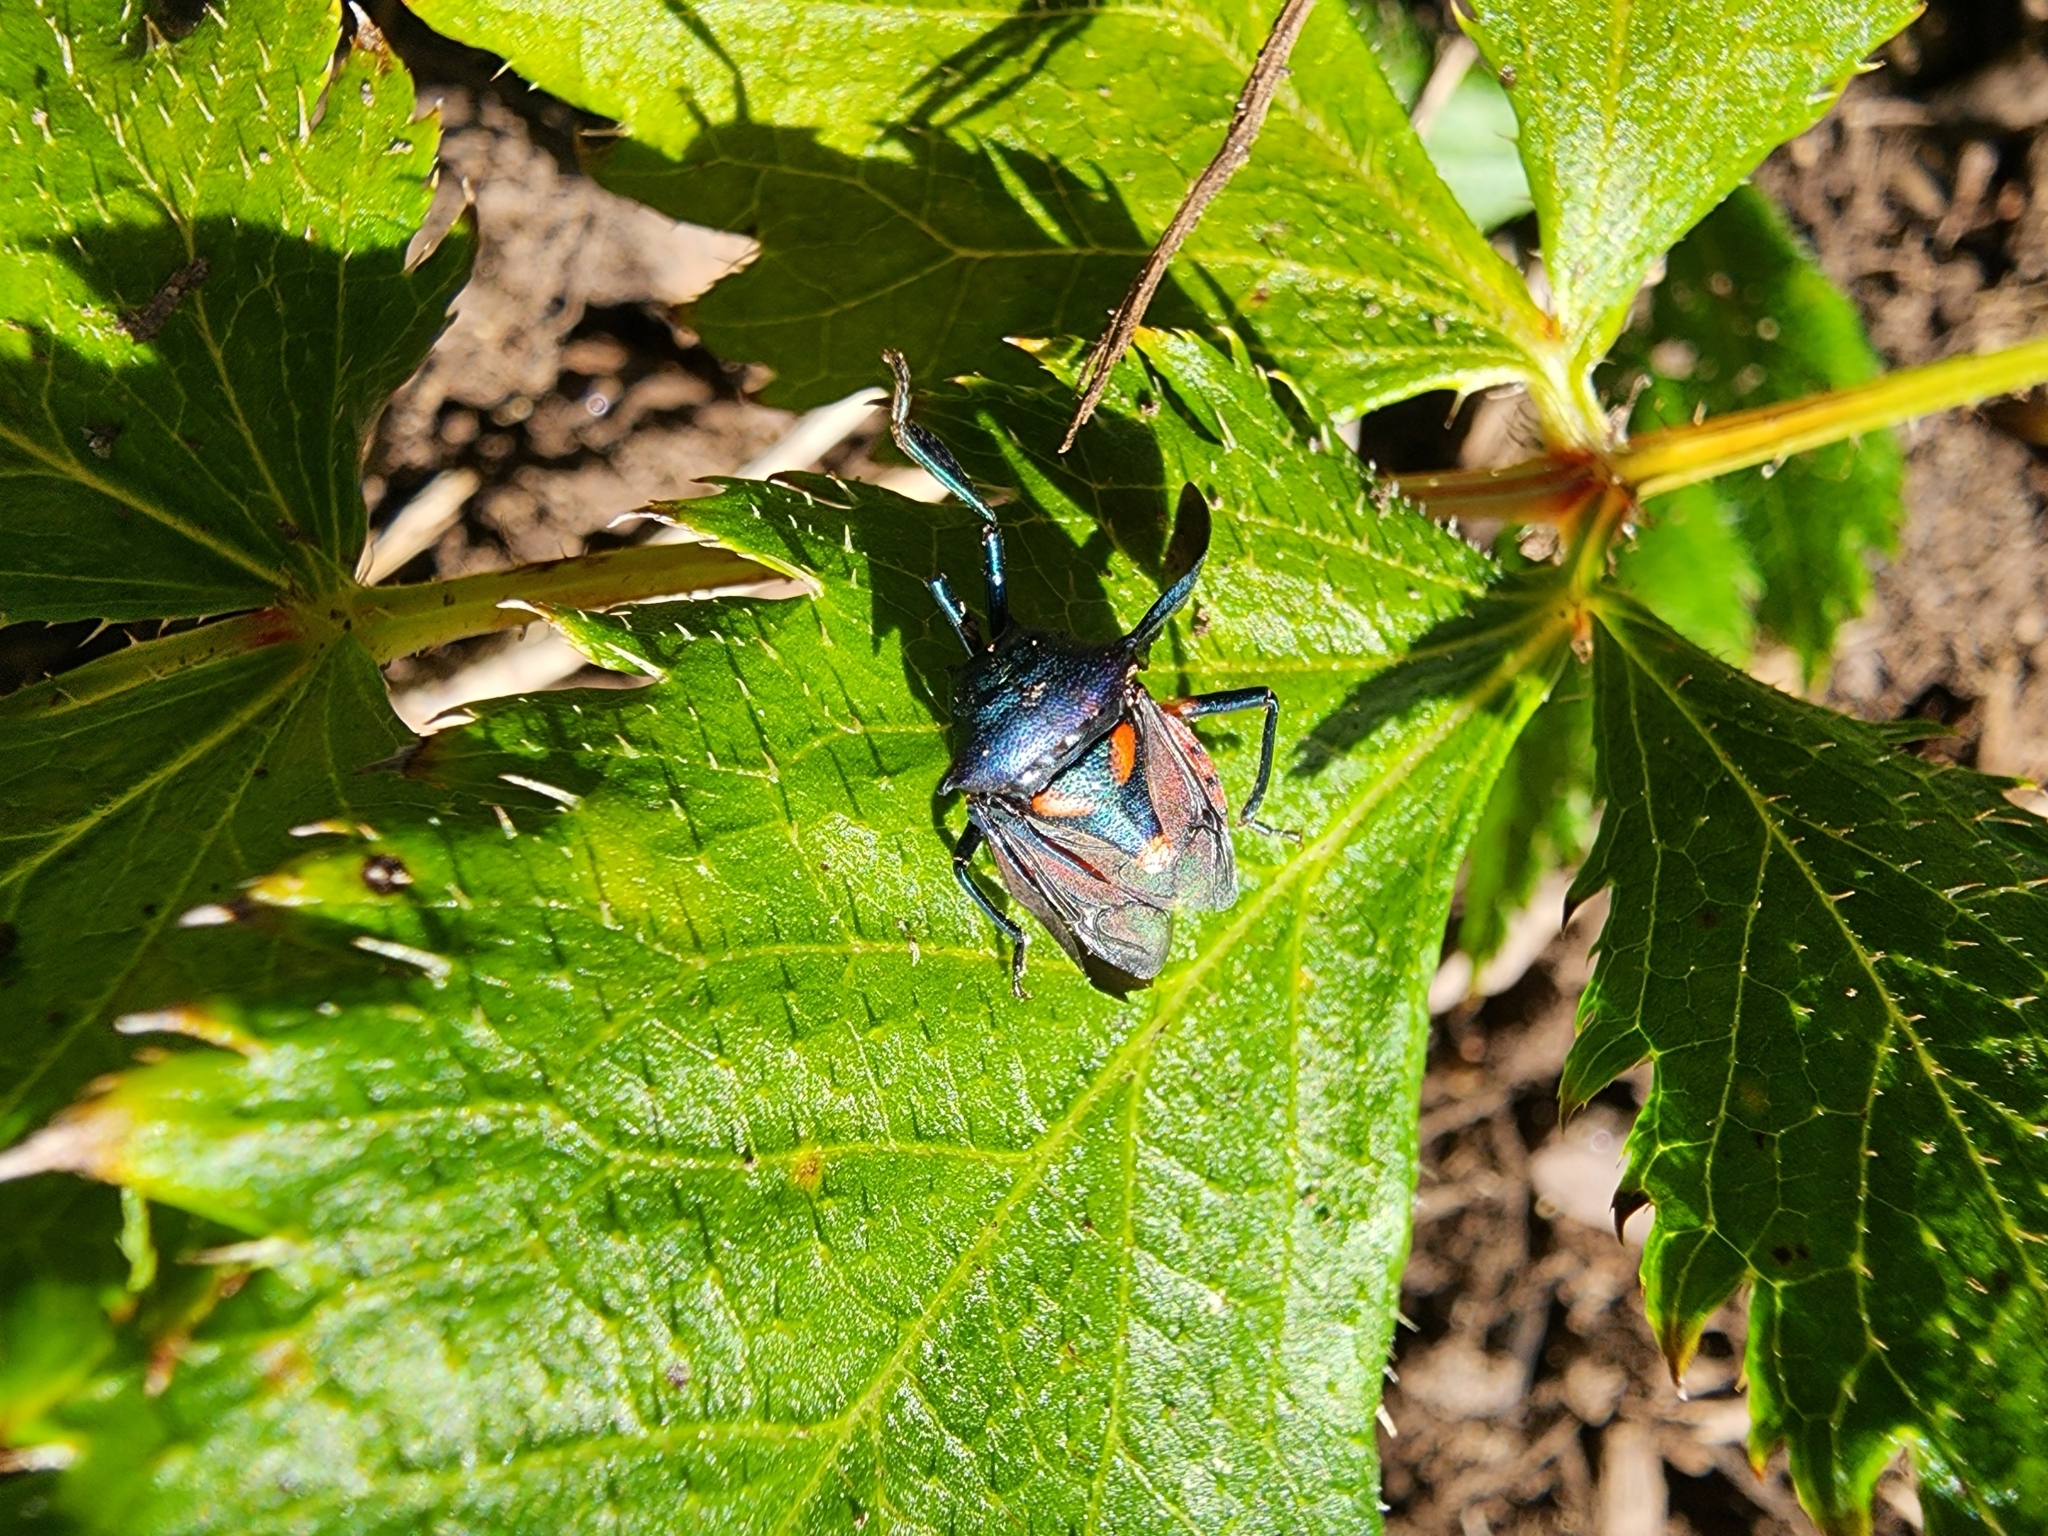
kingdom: Animalia
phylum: Arthropoda
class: Insecta
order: Hemiptera
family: Pentatomidae
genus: Euthyrhynchus
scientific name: Euthyrhynchus floridanus
